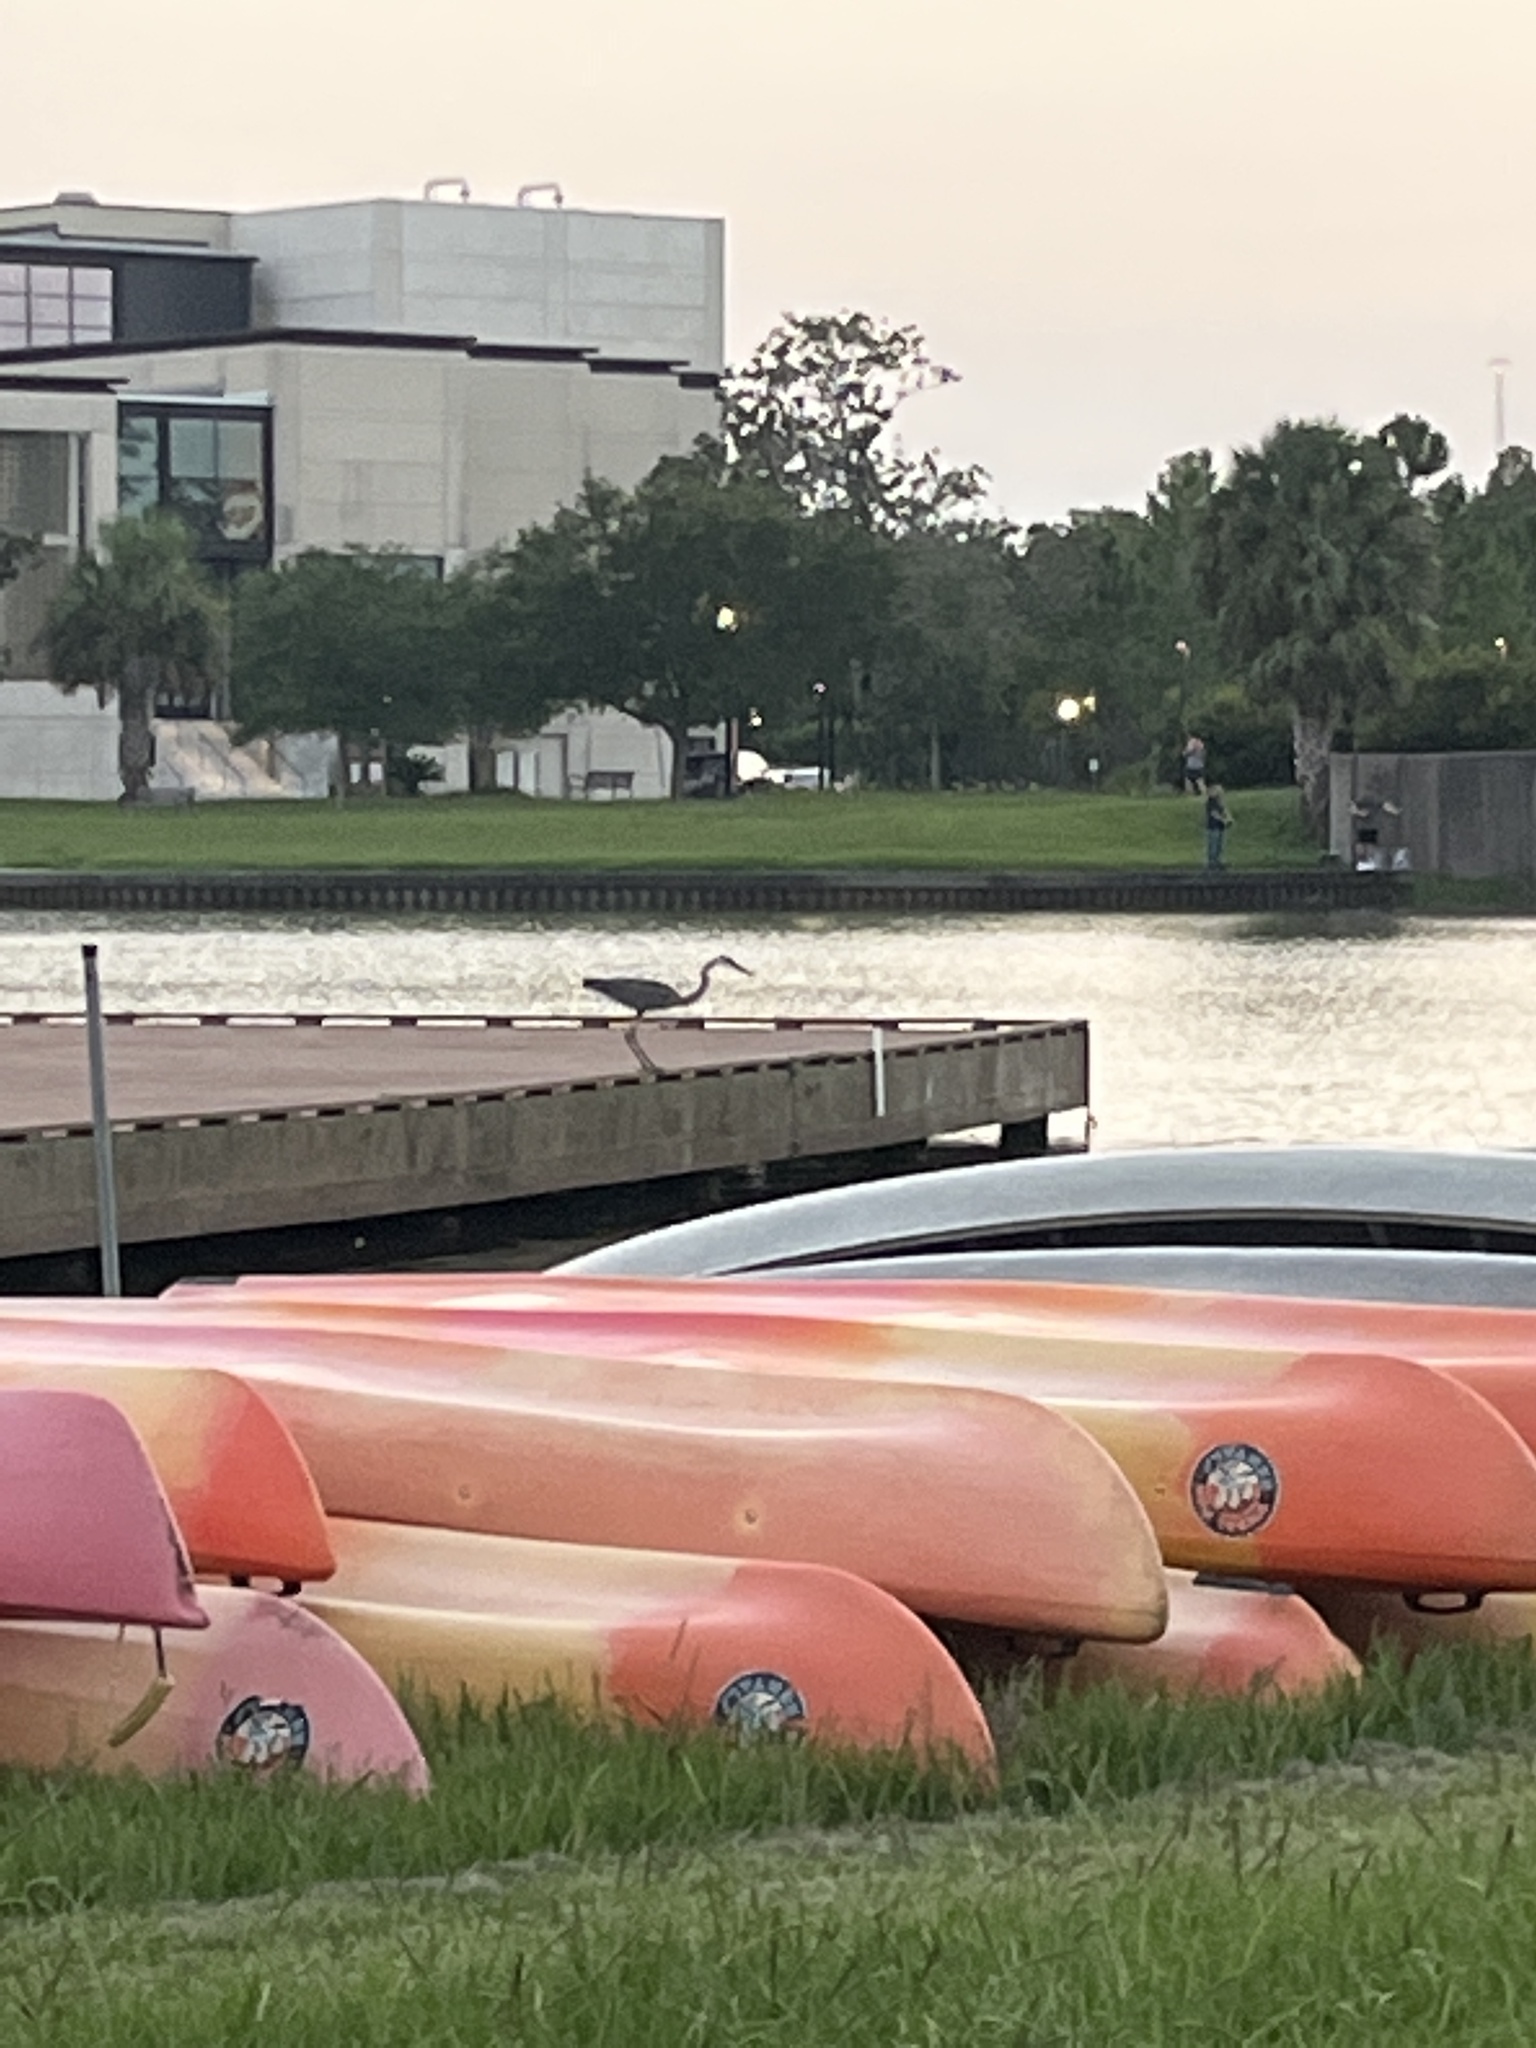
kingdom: Animalia
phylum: Chordata
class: Aves
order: Pelecaniformes
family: Ardeidae
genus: Ardea
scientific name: Ardea herodias
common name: Great blue heron
